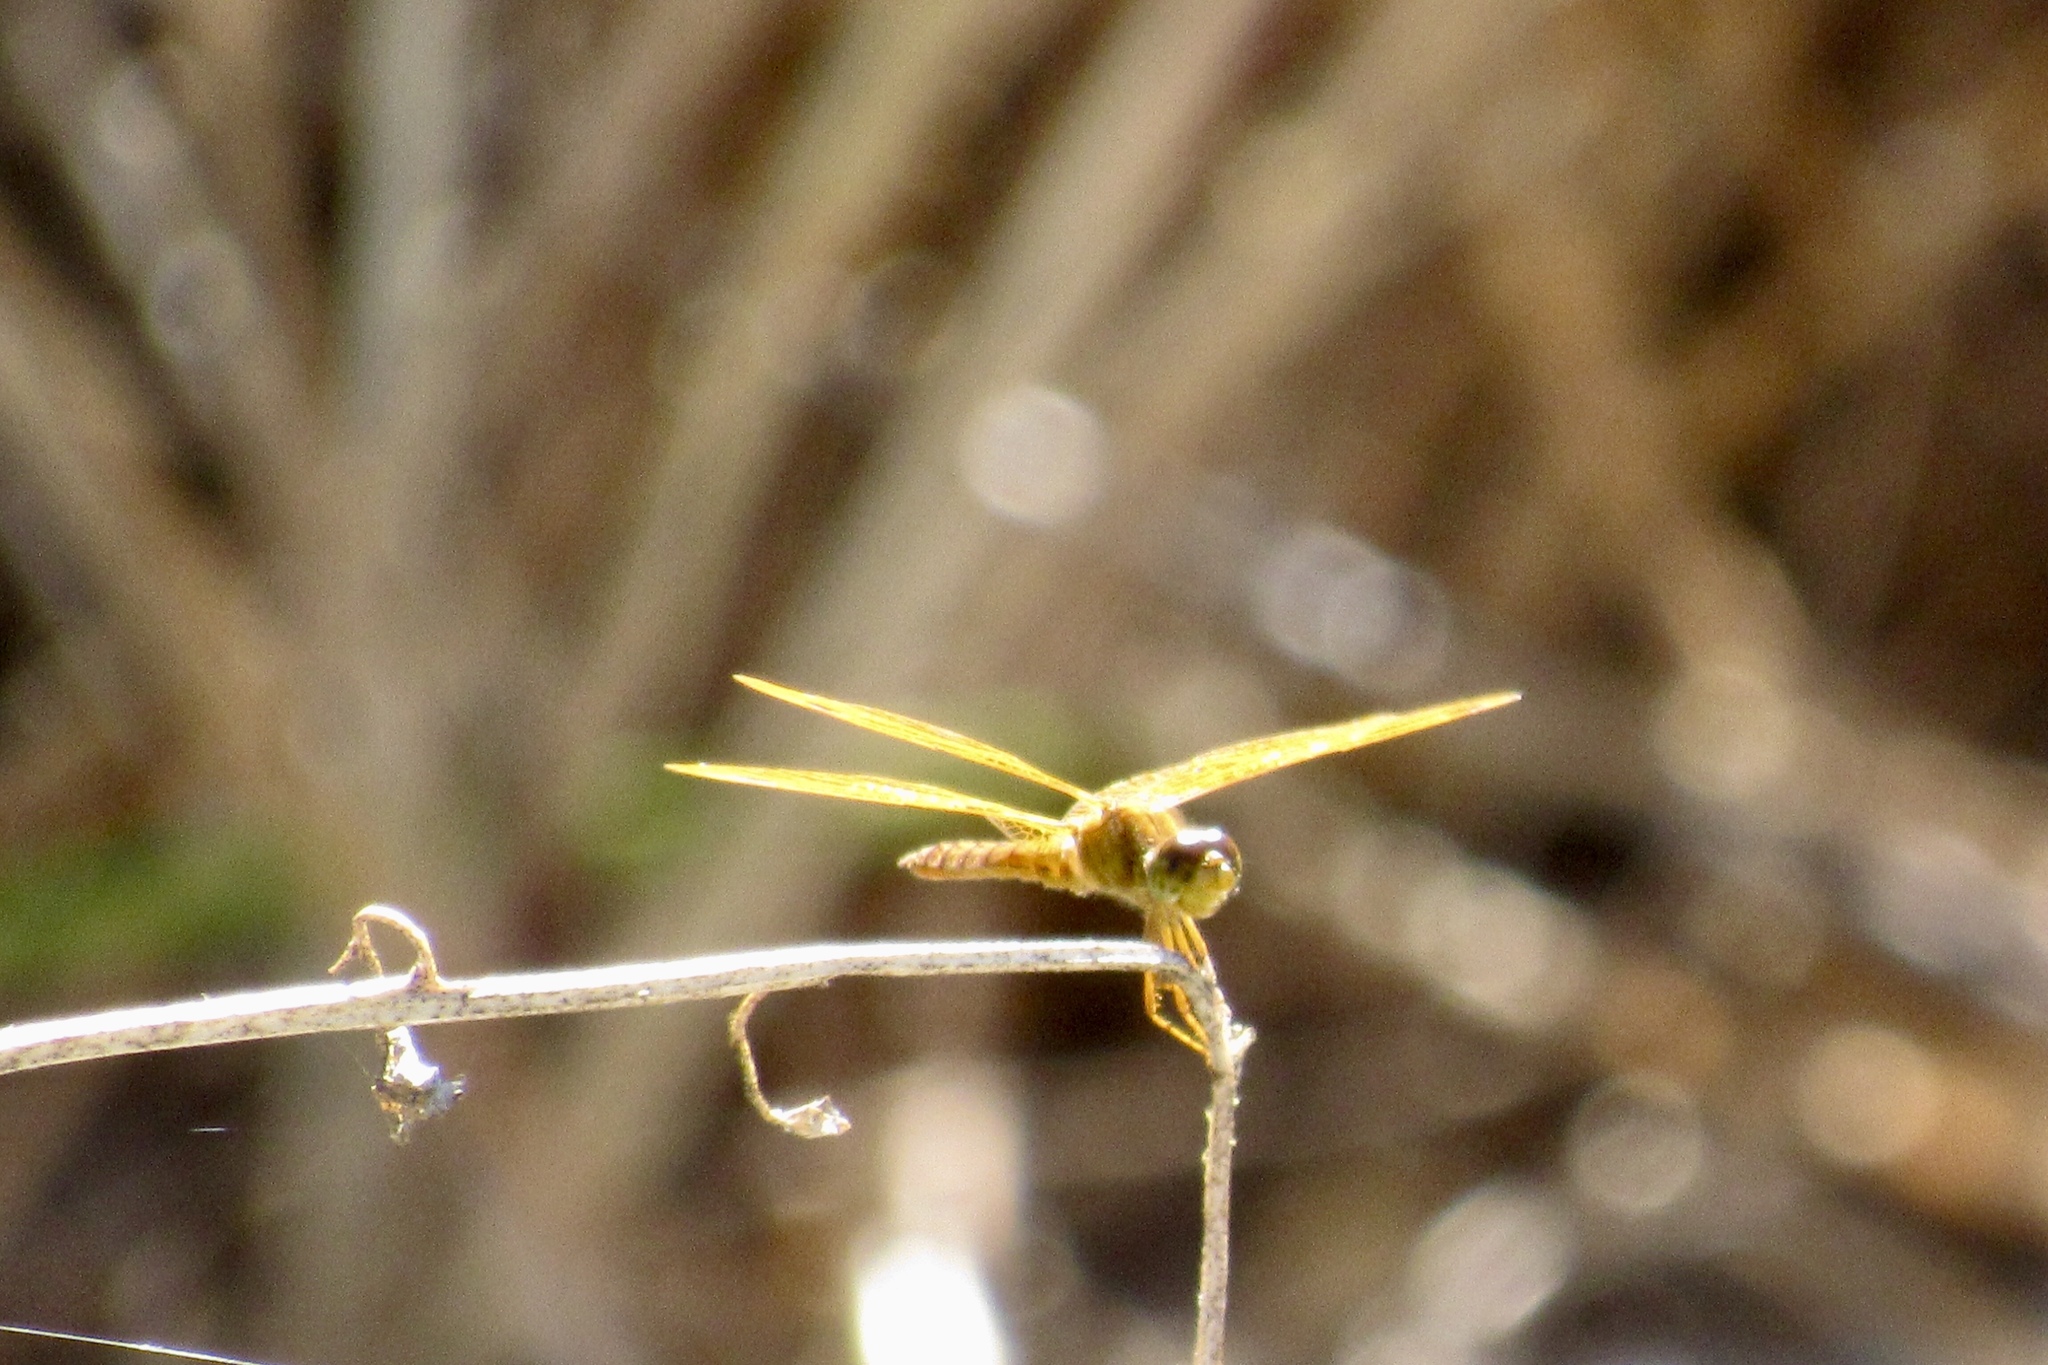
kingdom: Animalia
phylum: Arthropoda
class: Insecta
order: Odonata
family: Libellulidae
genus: Perithemis
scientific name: Perithemis intensa
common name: Mexican amberwing
